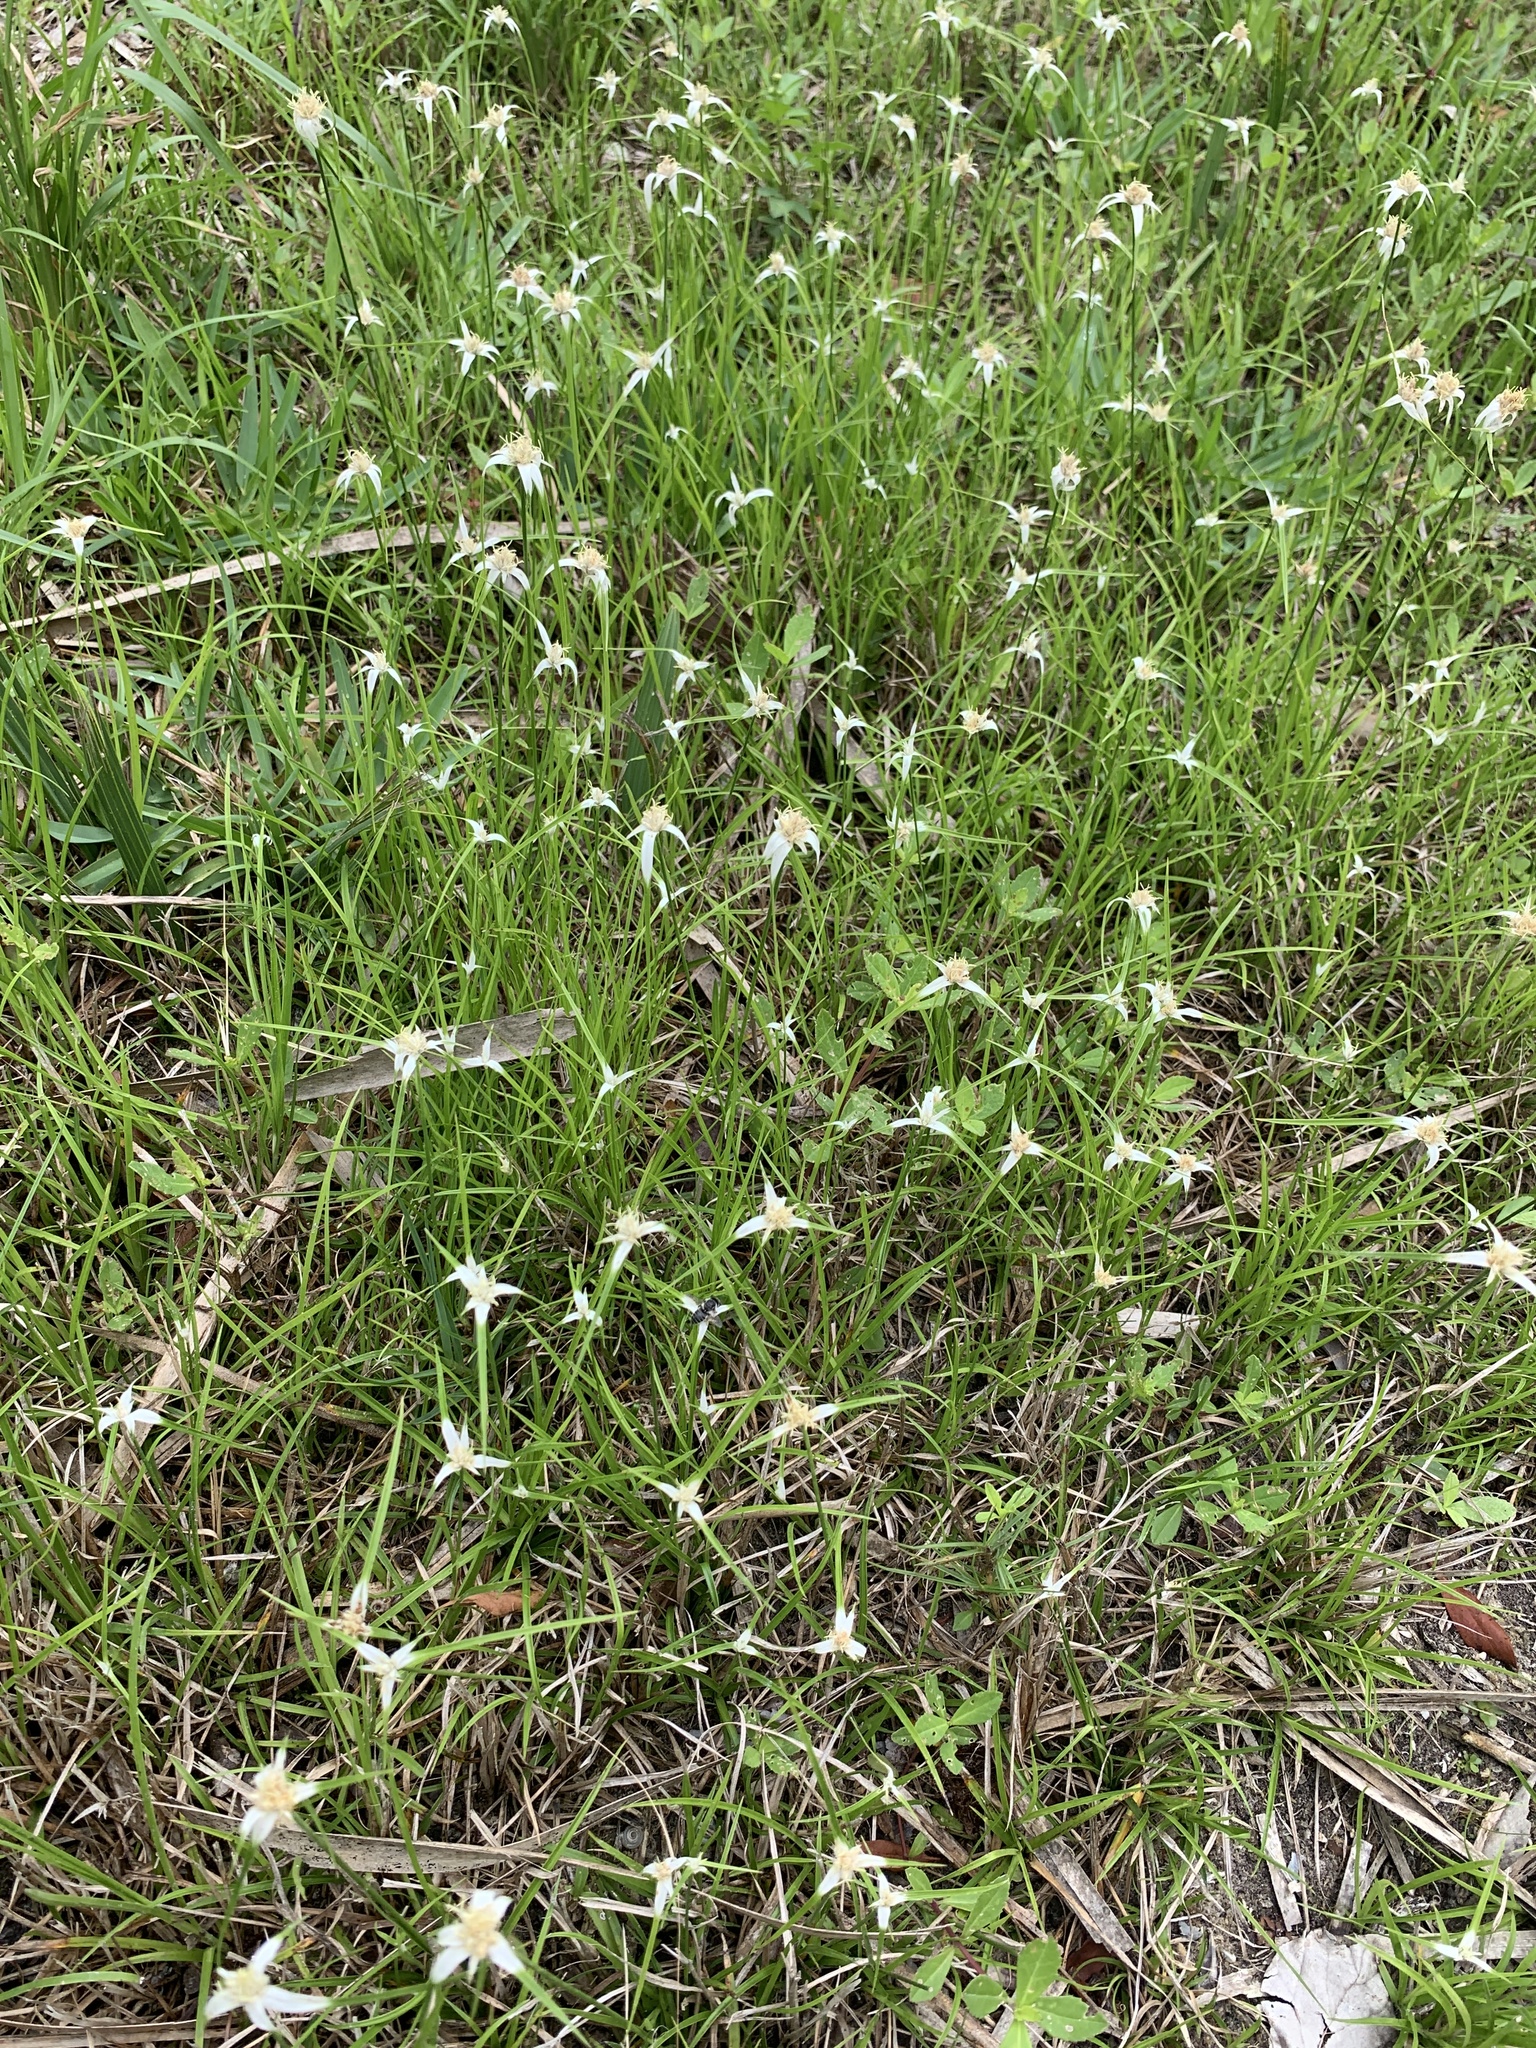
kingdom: Plantae
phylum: Tracheophyta
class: Liliopsida
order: Poales
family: Cyperaceae
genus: Rhynchospora
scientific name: Rhynchospora colorata
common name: Star sedge
